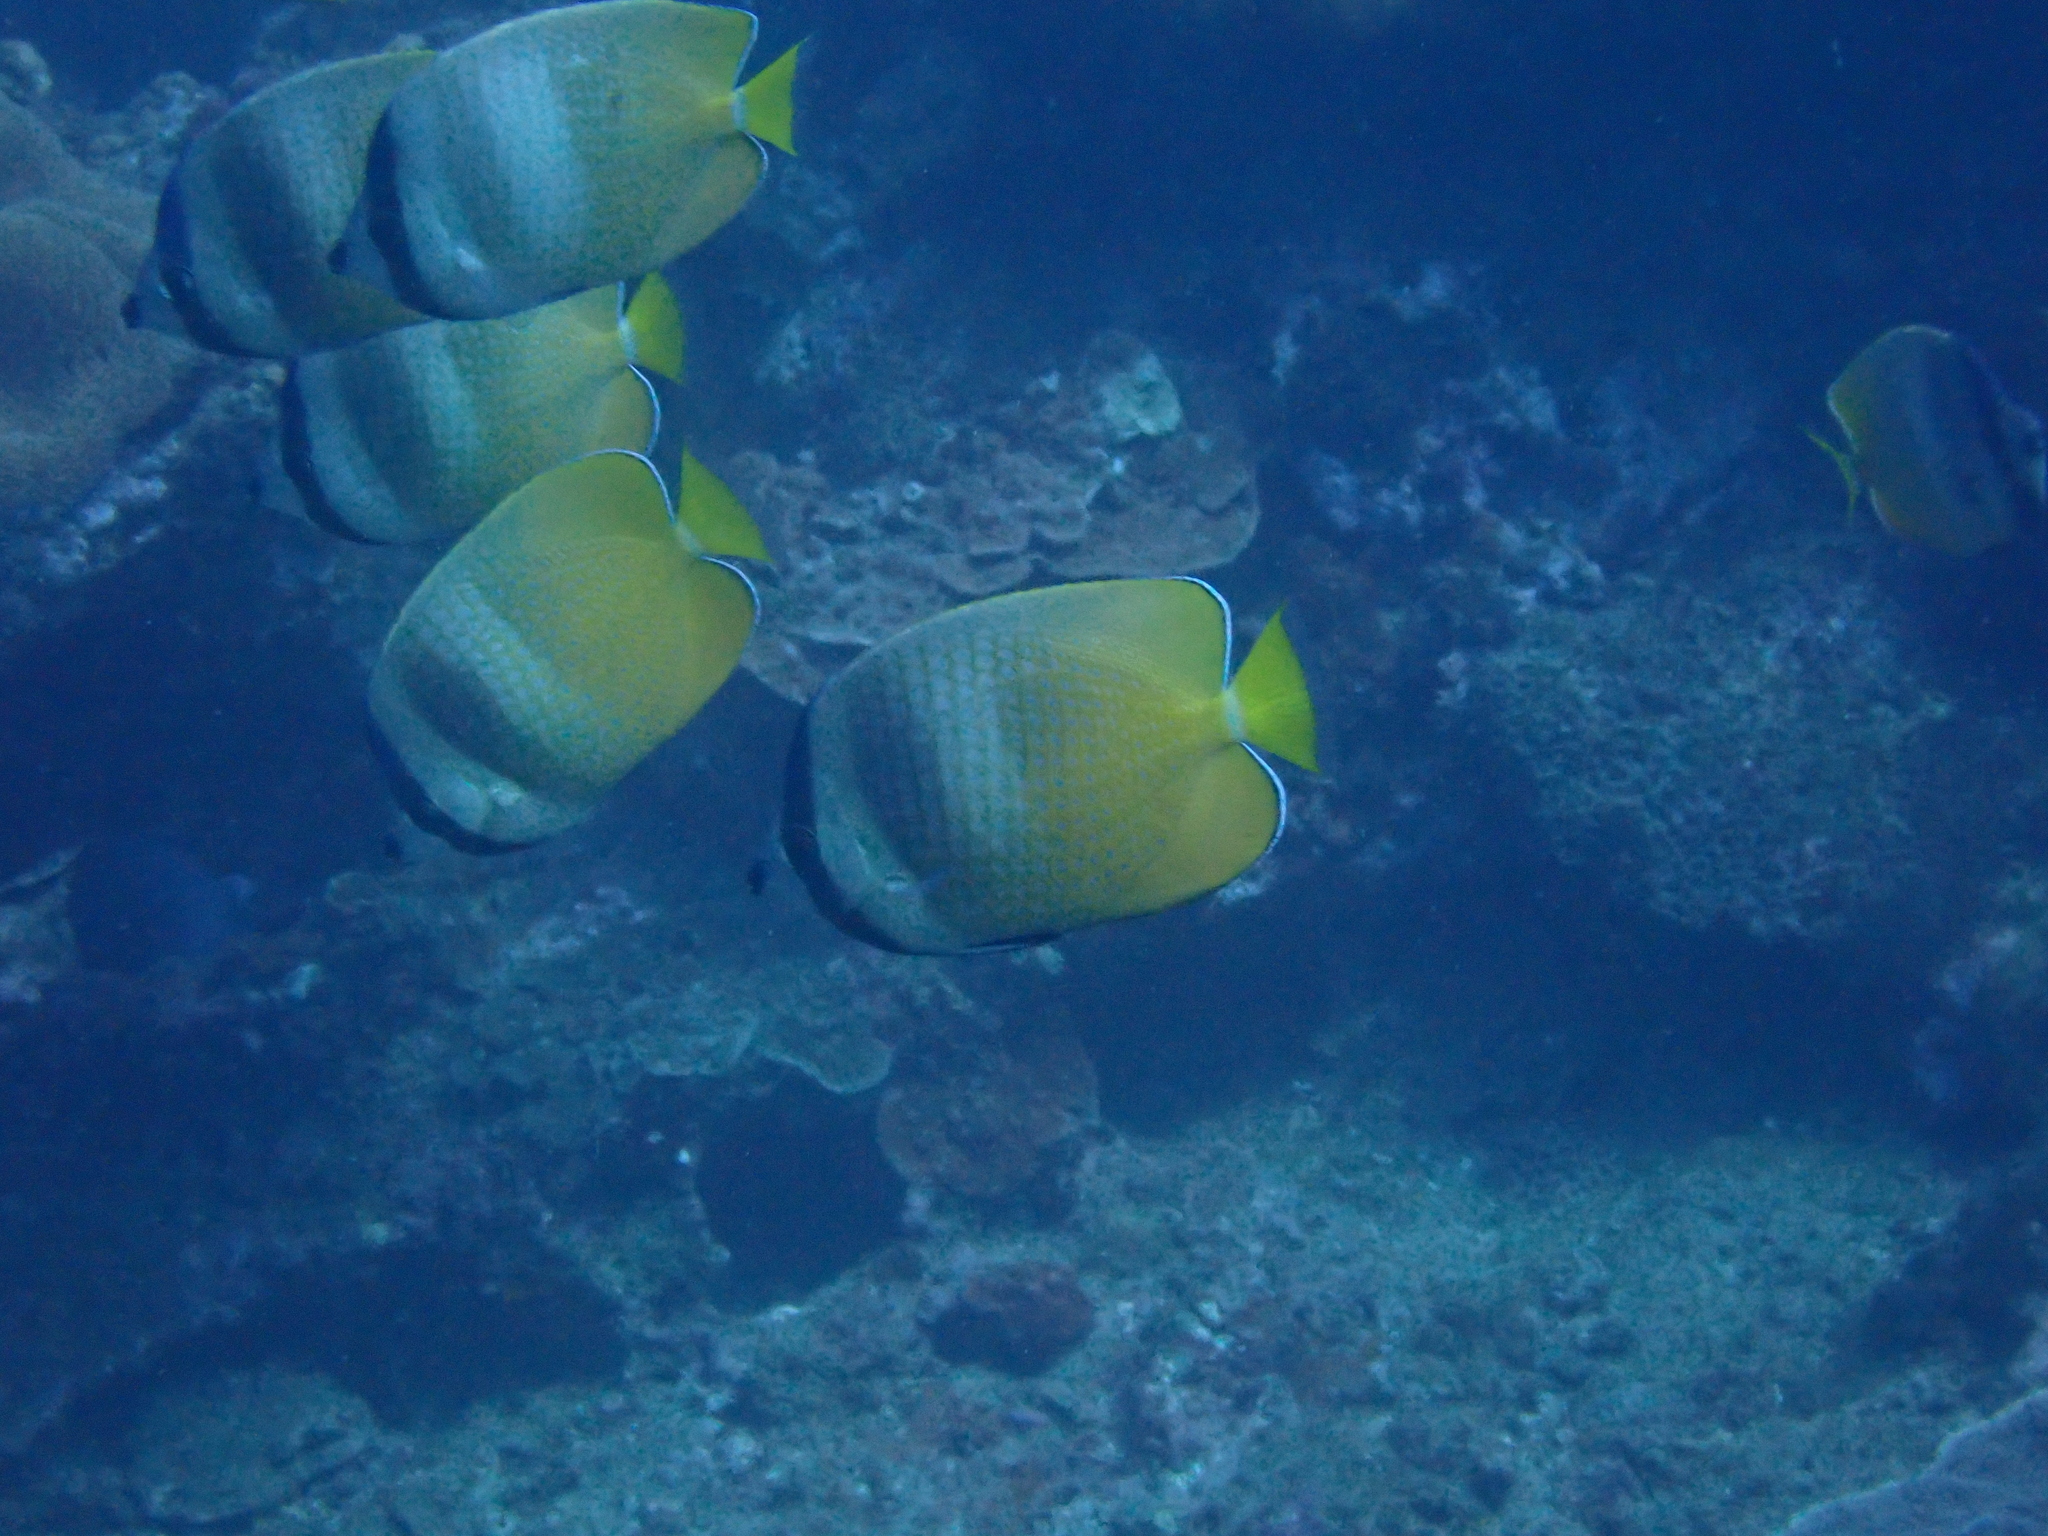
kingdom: Animalia
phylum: Chordata
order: Perciformes
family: Chaetodontidae
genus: Chaetodon
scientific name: Chaetodon kleinii
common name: Klein's butterflyfish
